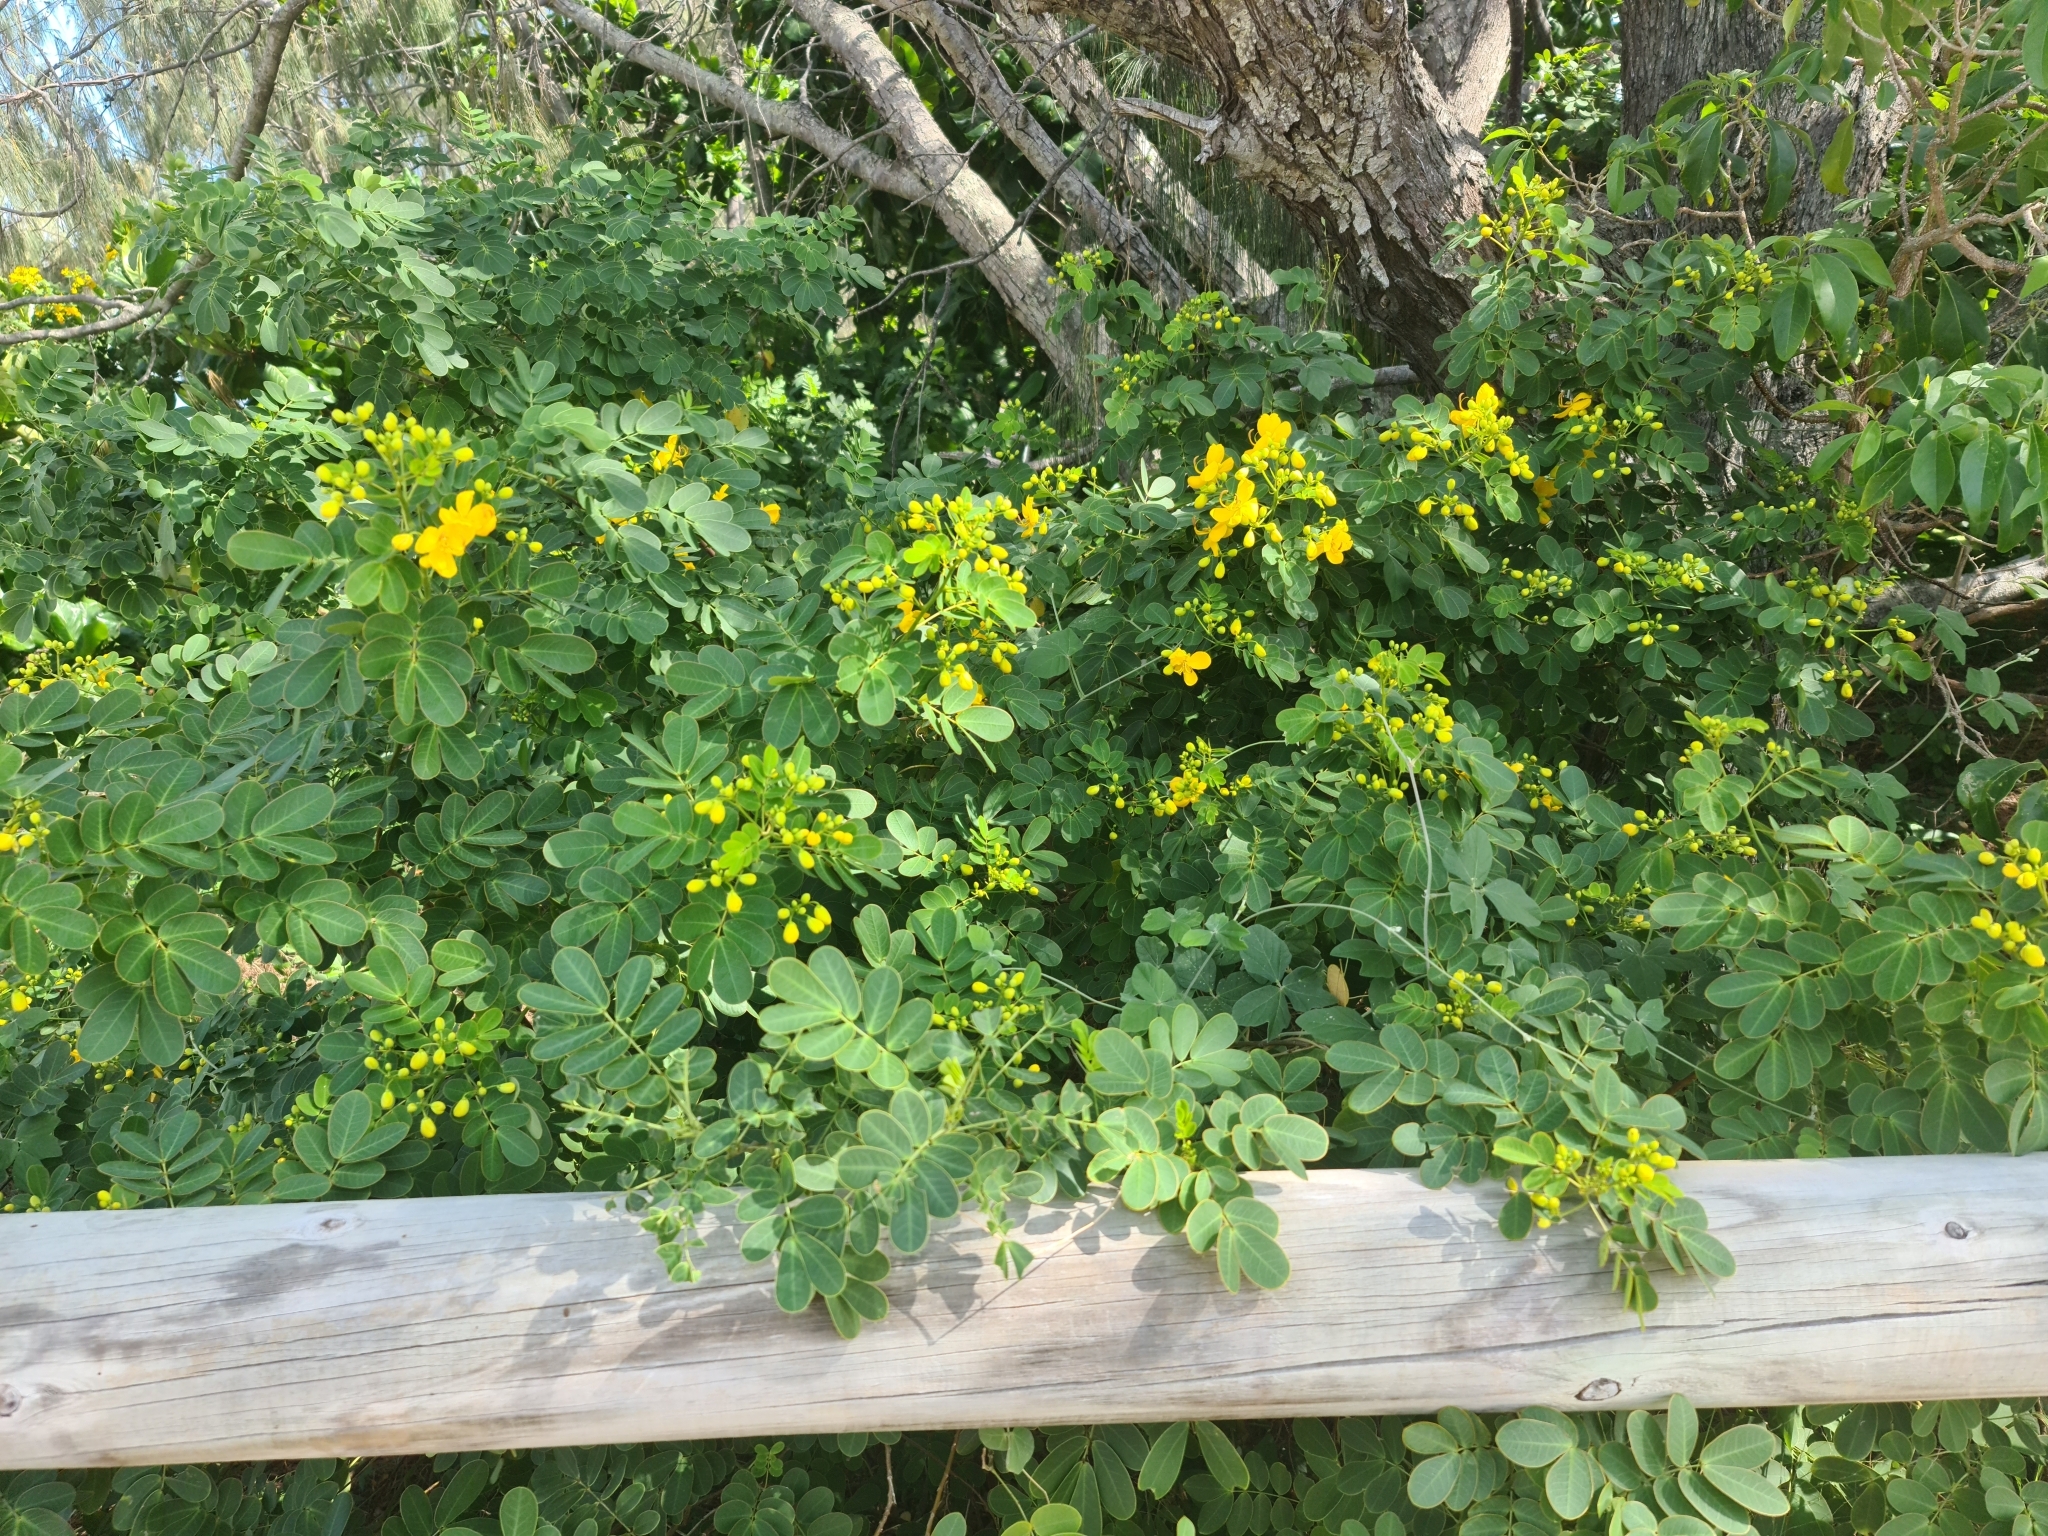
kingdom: Plantae
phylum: Tracheophyta
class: Magnoliopsida
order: Fabales
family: Fabaceae
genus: Senna
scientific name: Senna pendula
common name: Easter cassia
